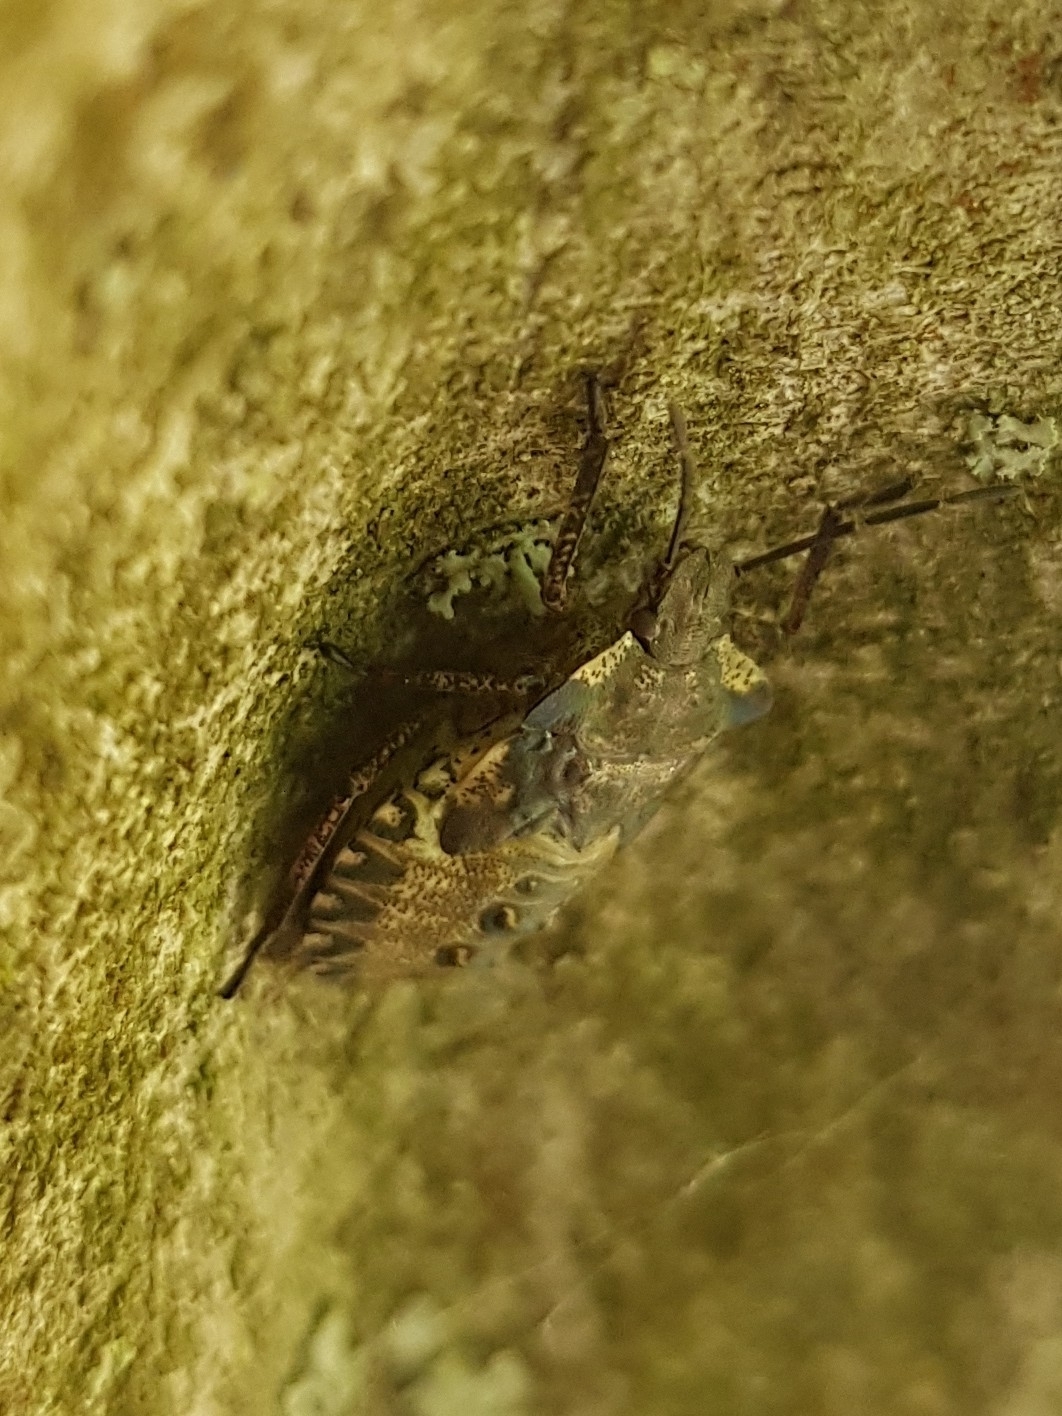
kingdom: Animalia
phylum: Arthropoda
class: Insecta
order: Hemiptera
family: Pentatomidae
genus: Pentatoma
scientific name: Pentatoma rufipes
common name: Forest bug
